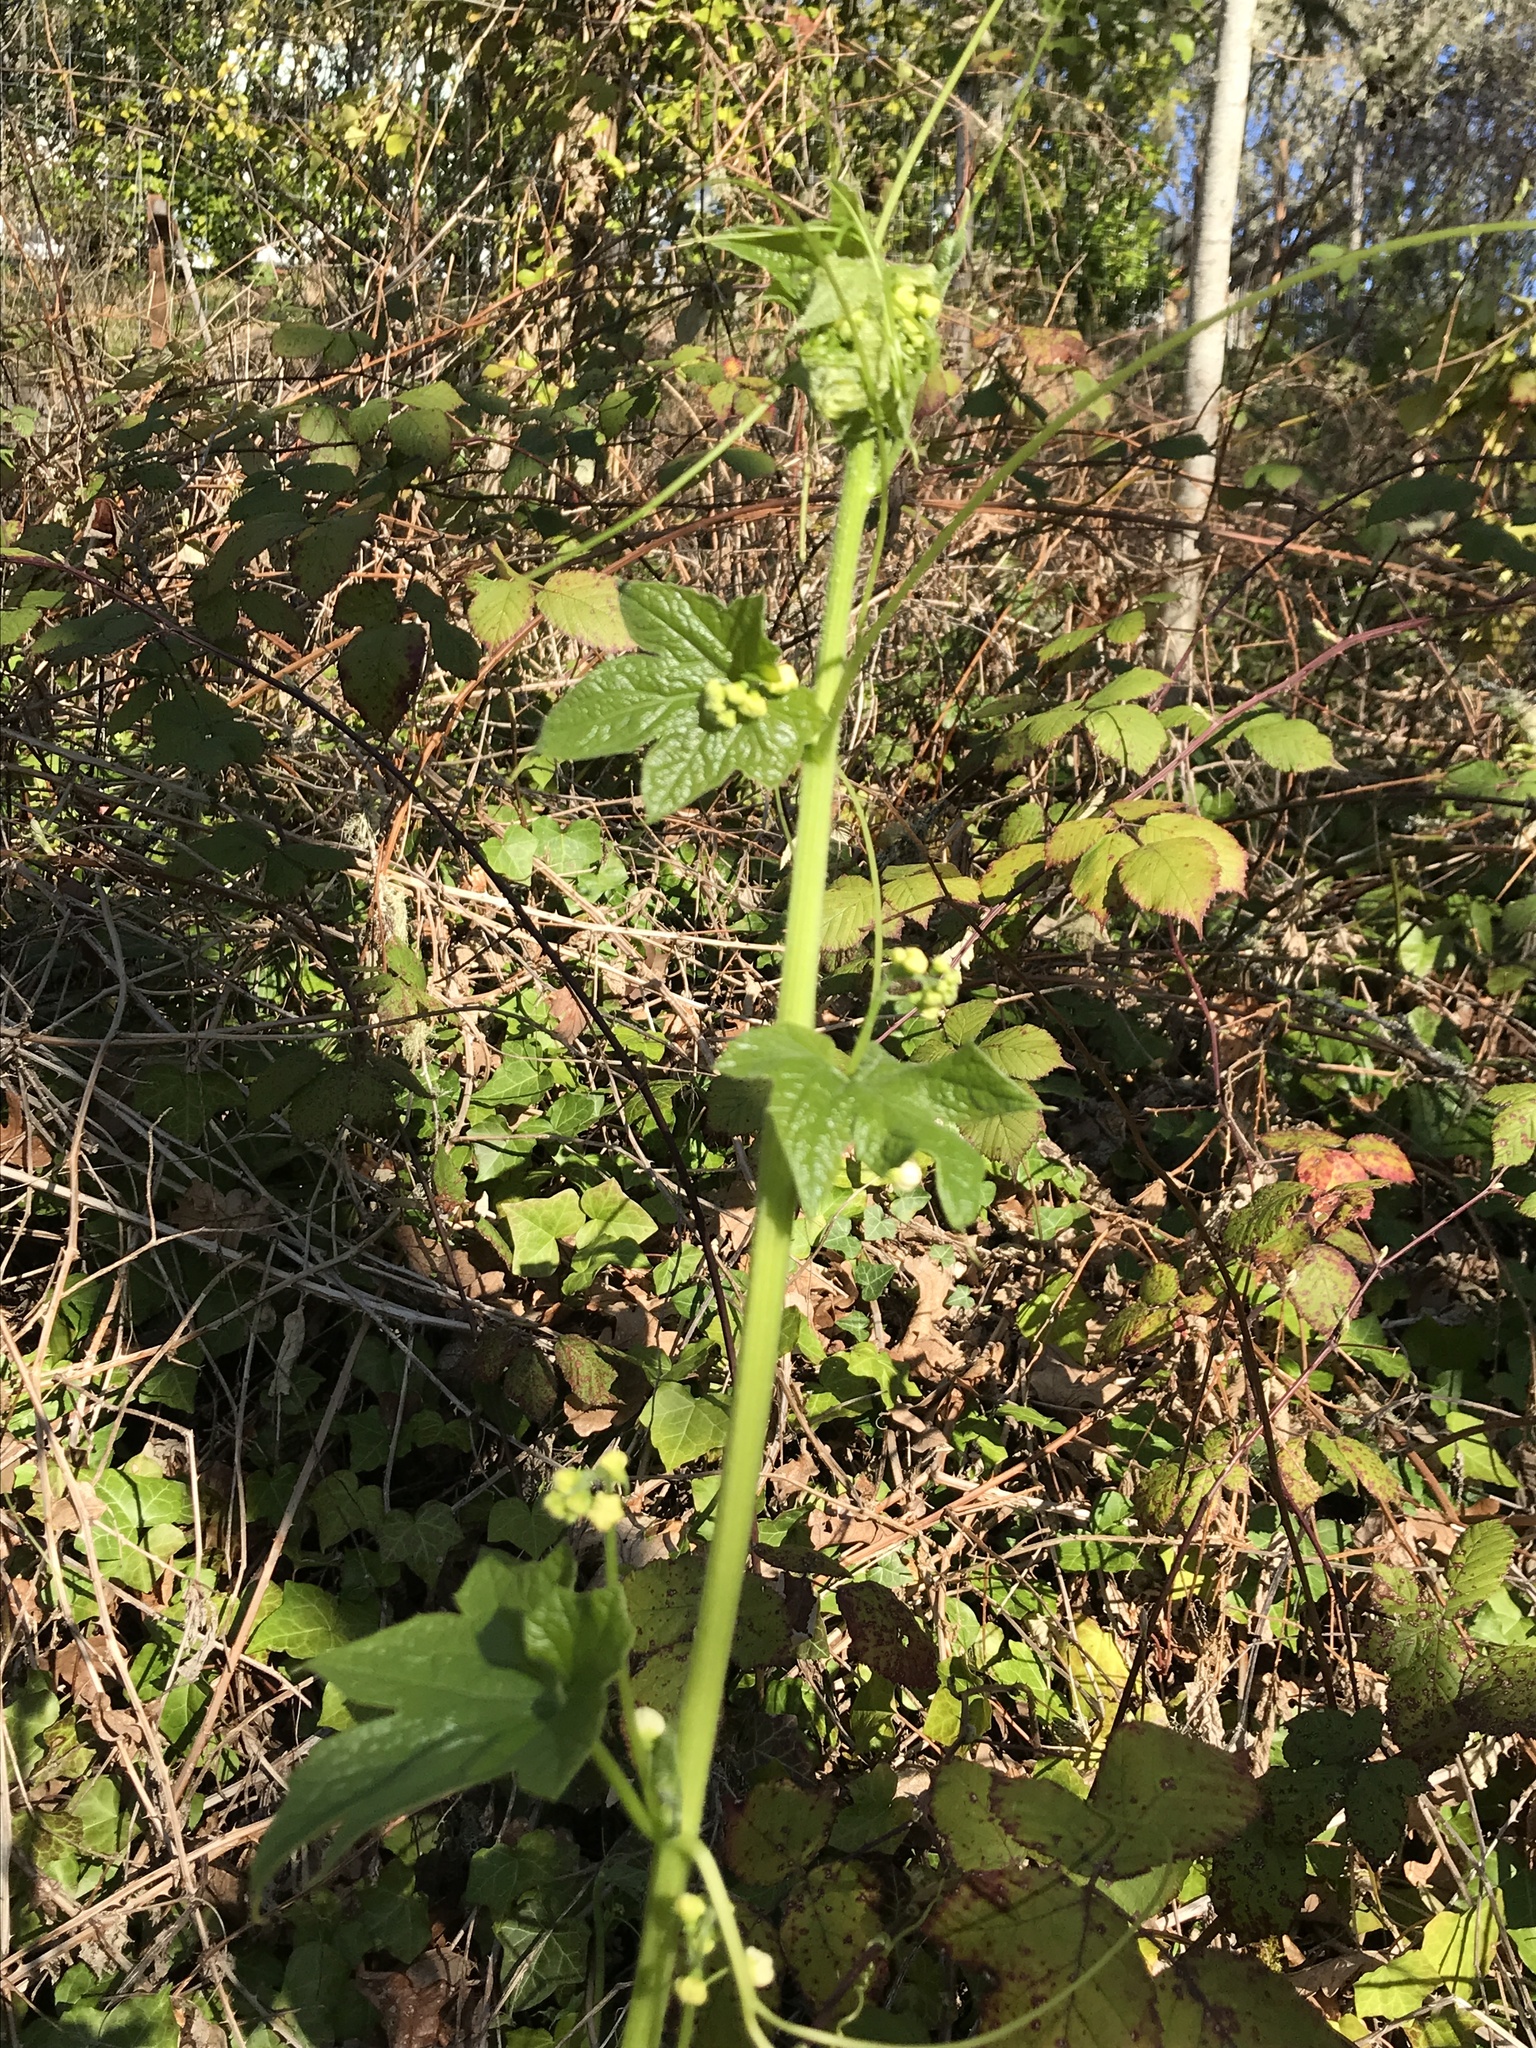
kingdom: Plantae
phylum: Tracheophyta
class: Magnoliopsida
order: Cucurbitales
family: Cucurbitaceae
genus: Marah
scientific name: Marah oregana
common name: Coastal manroot
